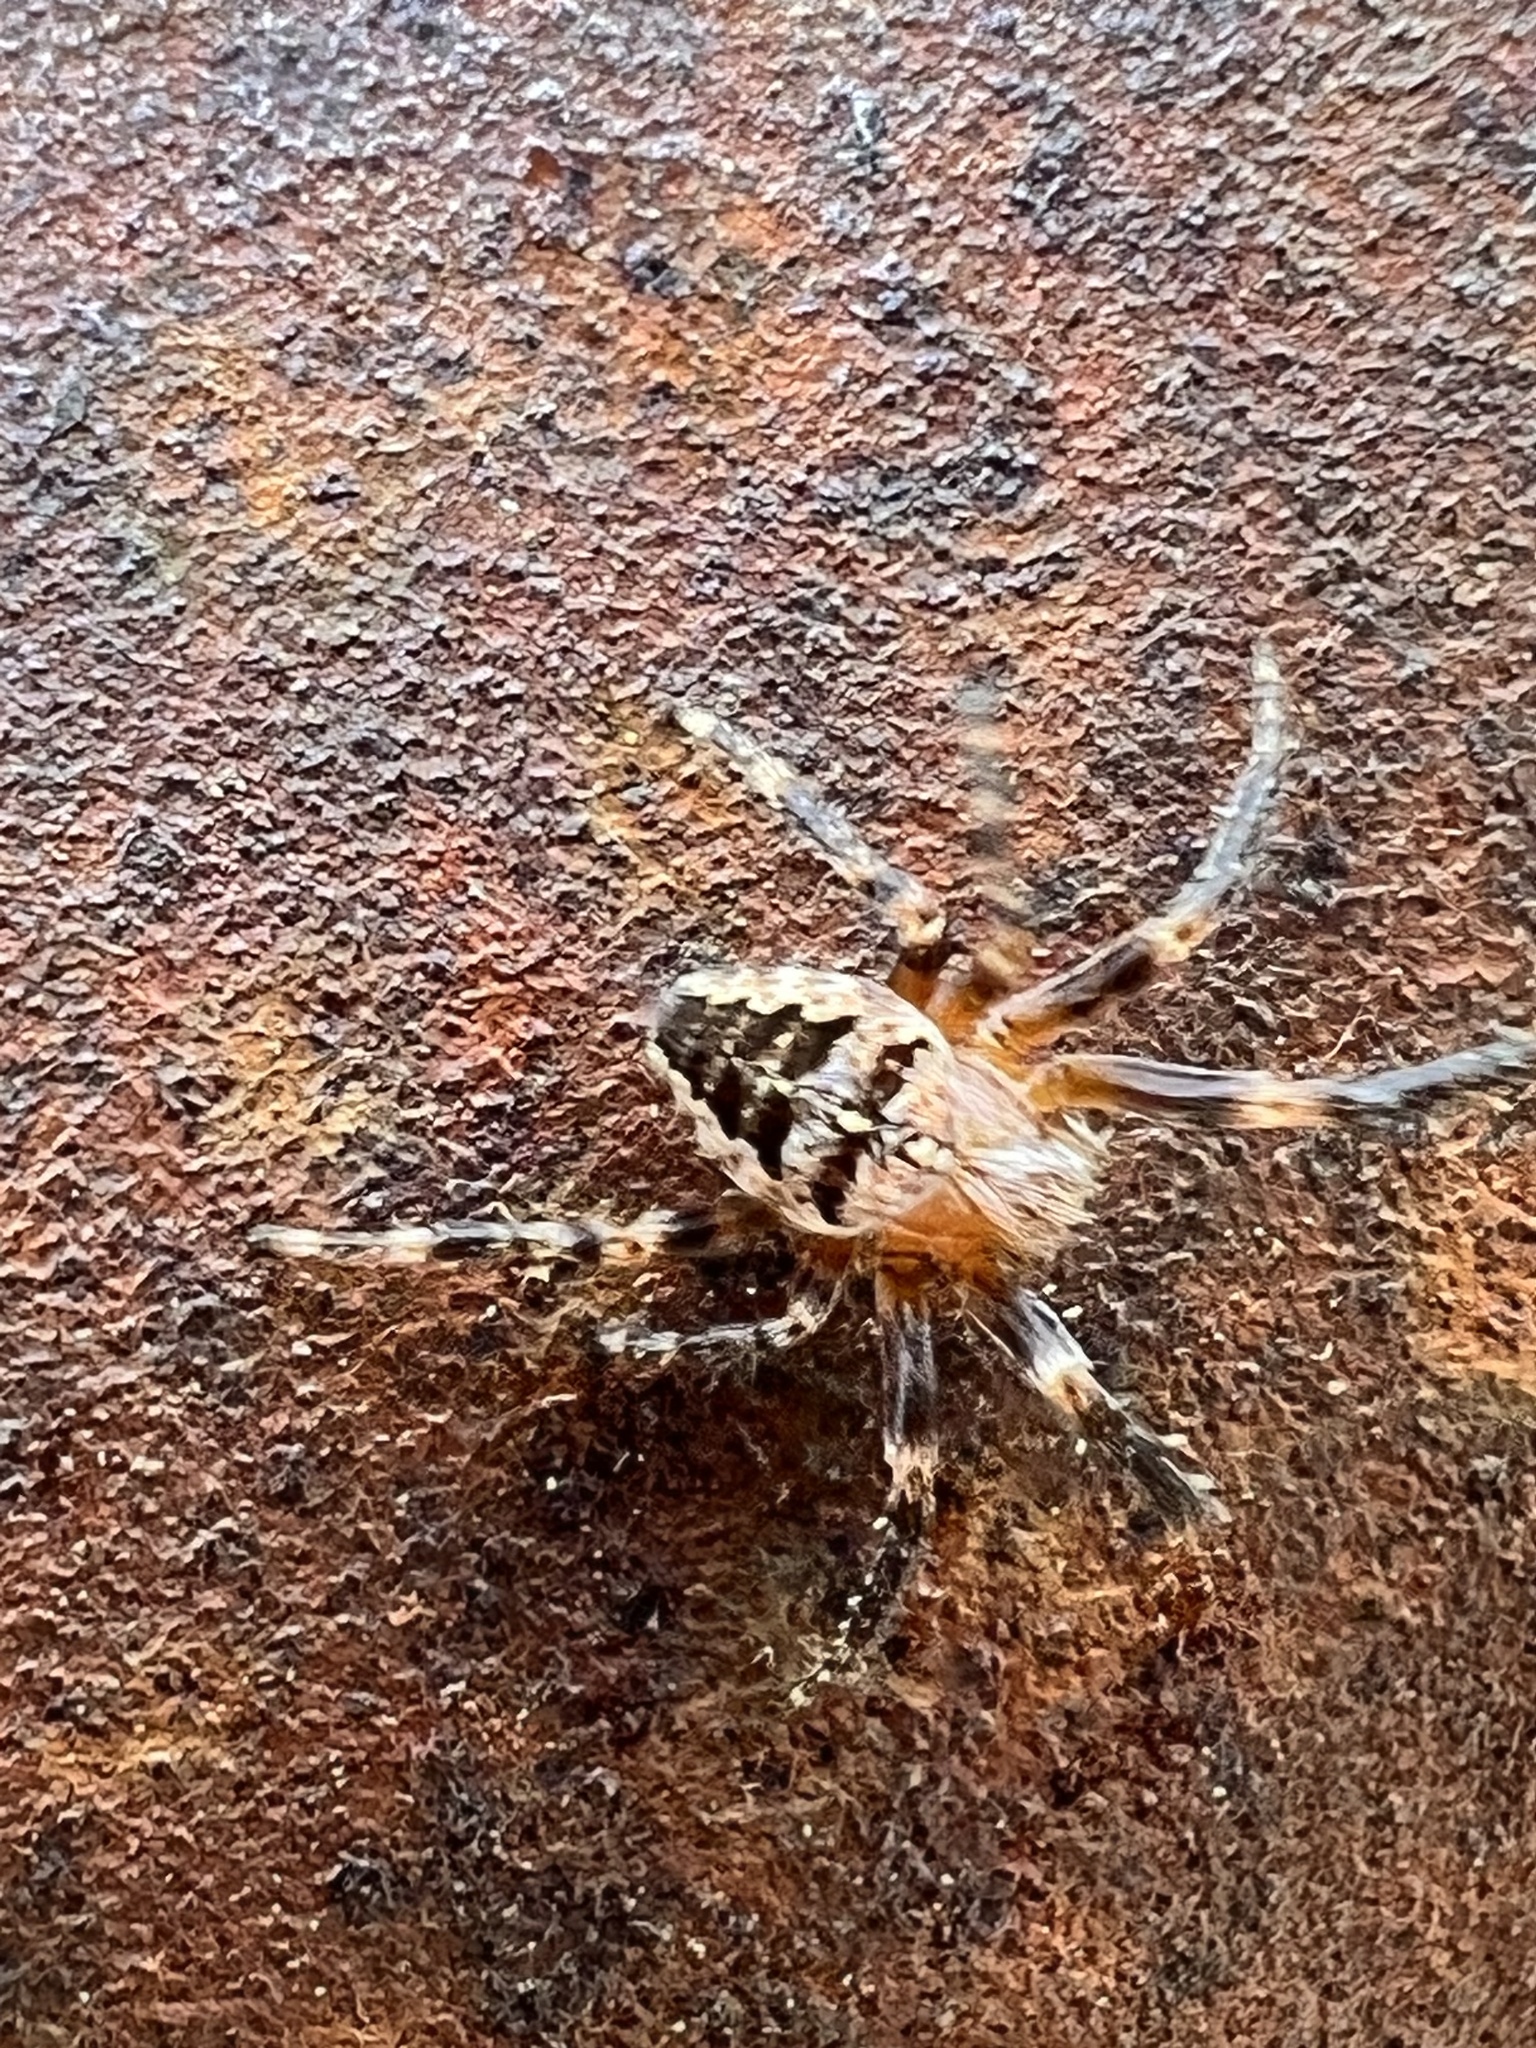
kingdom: Animalia
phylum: Arthropoda
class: Arachnida
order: Araneae
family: Araneidae
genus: Araneus
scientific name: Araneus diadematus
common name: Cross orbweaver
